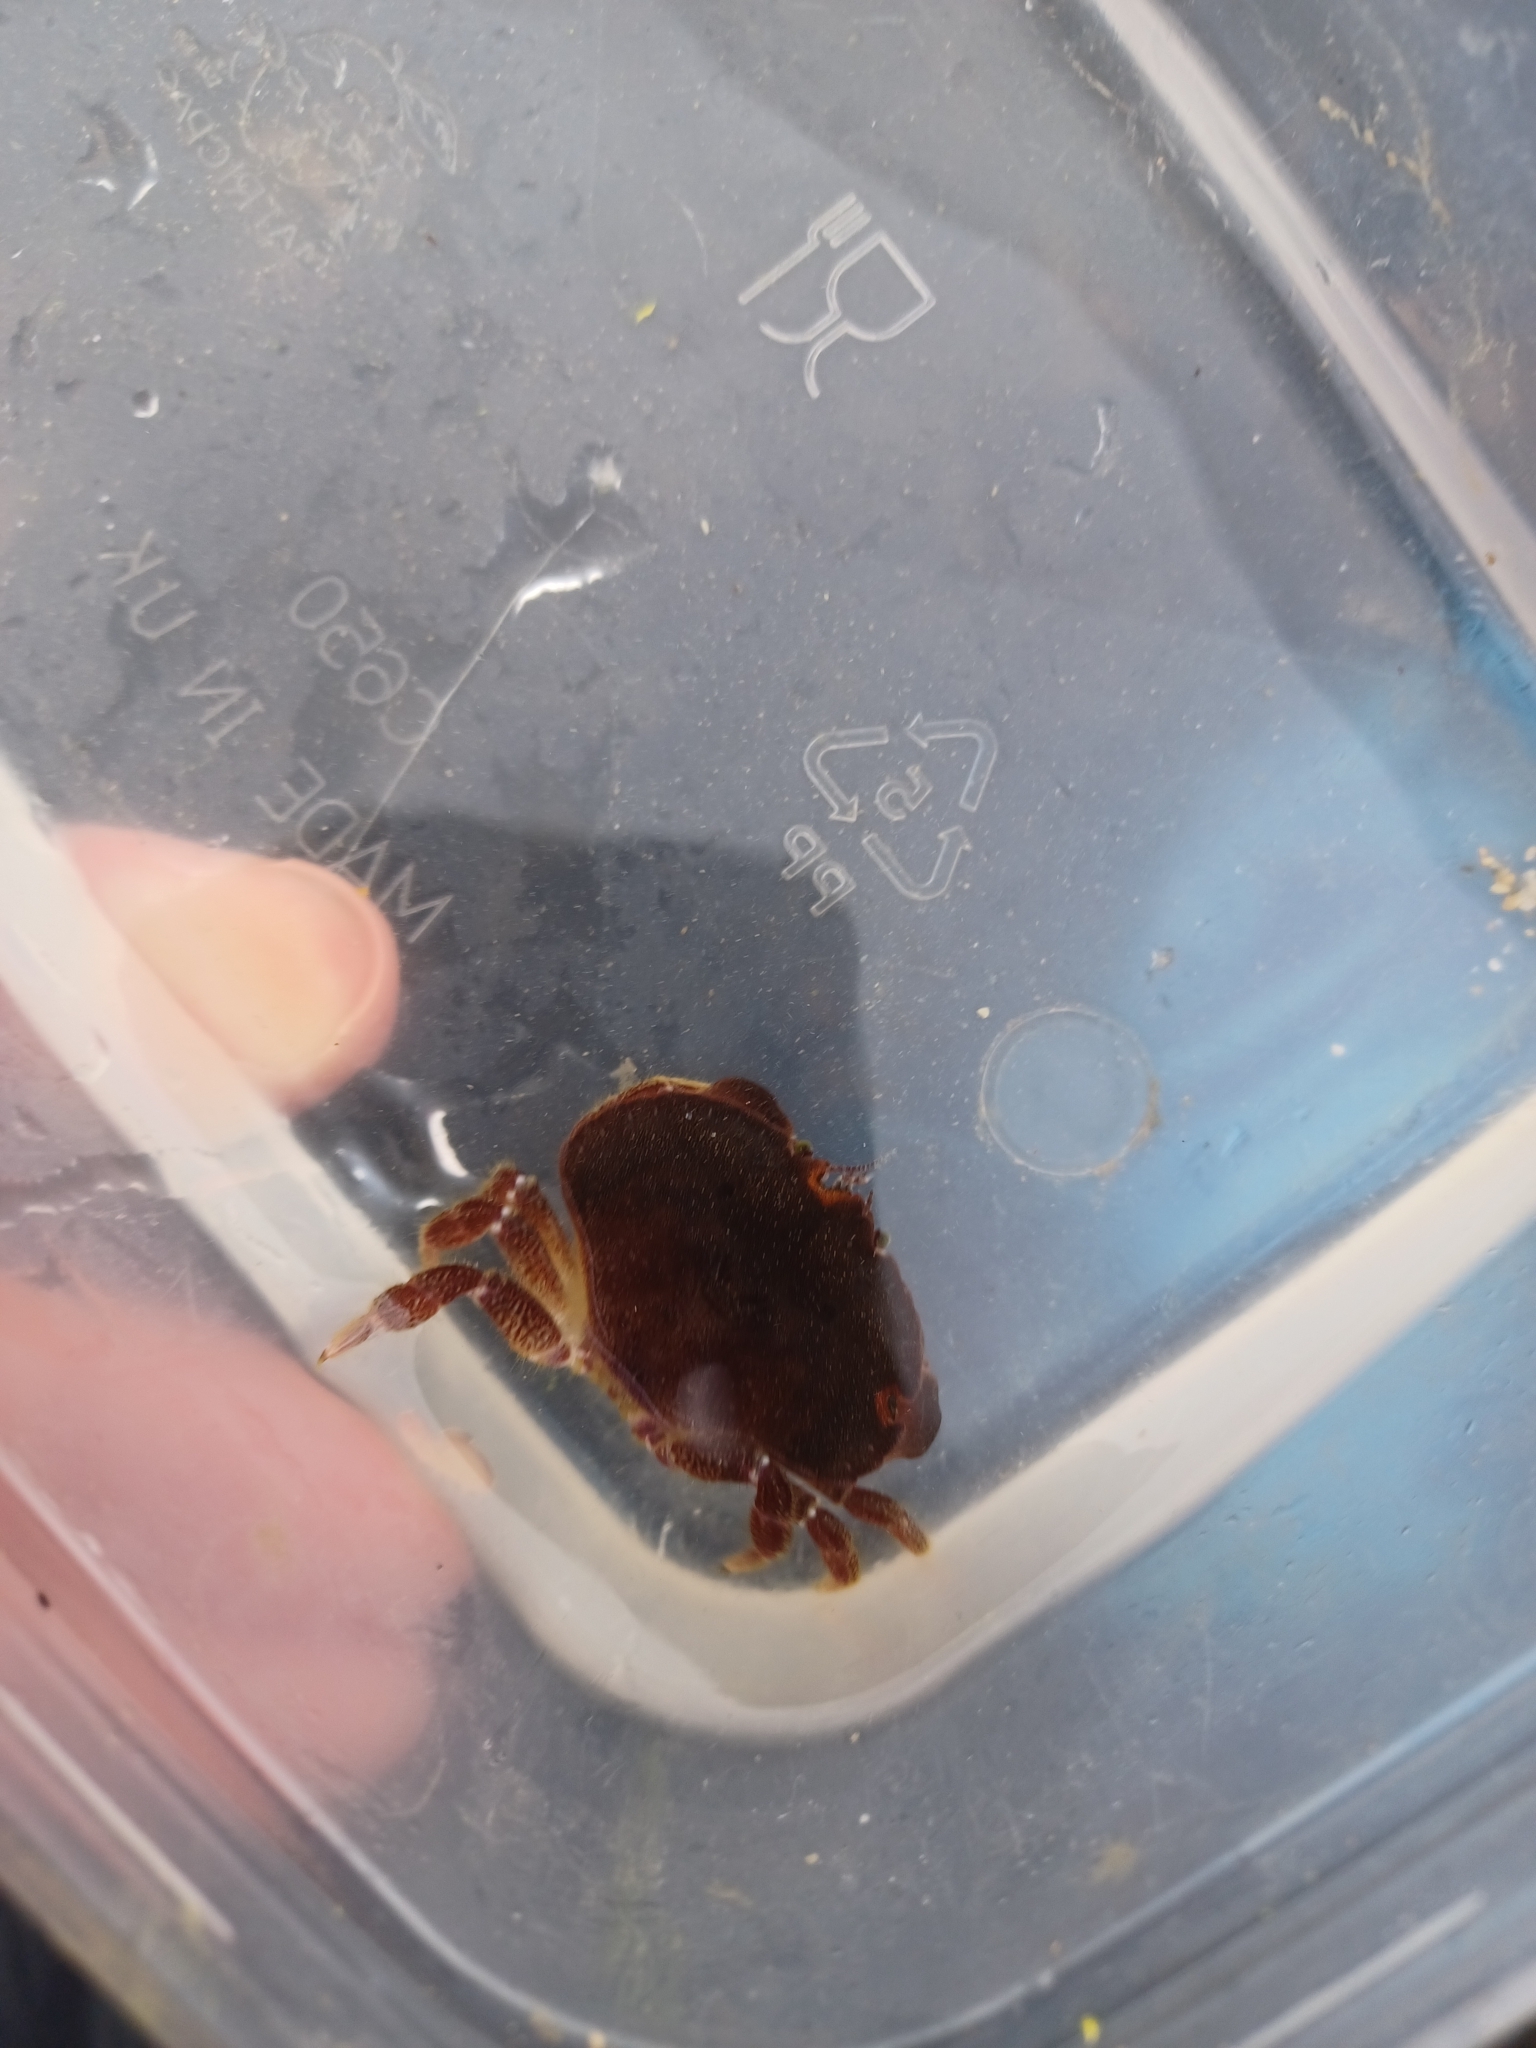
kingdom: Animalia
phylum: Arthropoda
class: Malacostraca
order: Decapoda
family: Cancridae
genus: Cancer
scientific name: Cancer pagurus
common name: Edible crab
